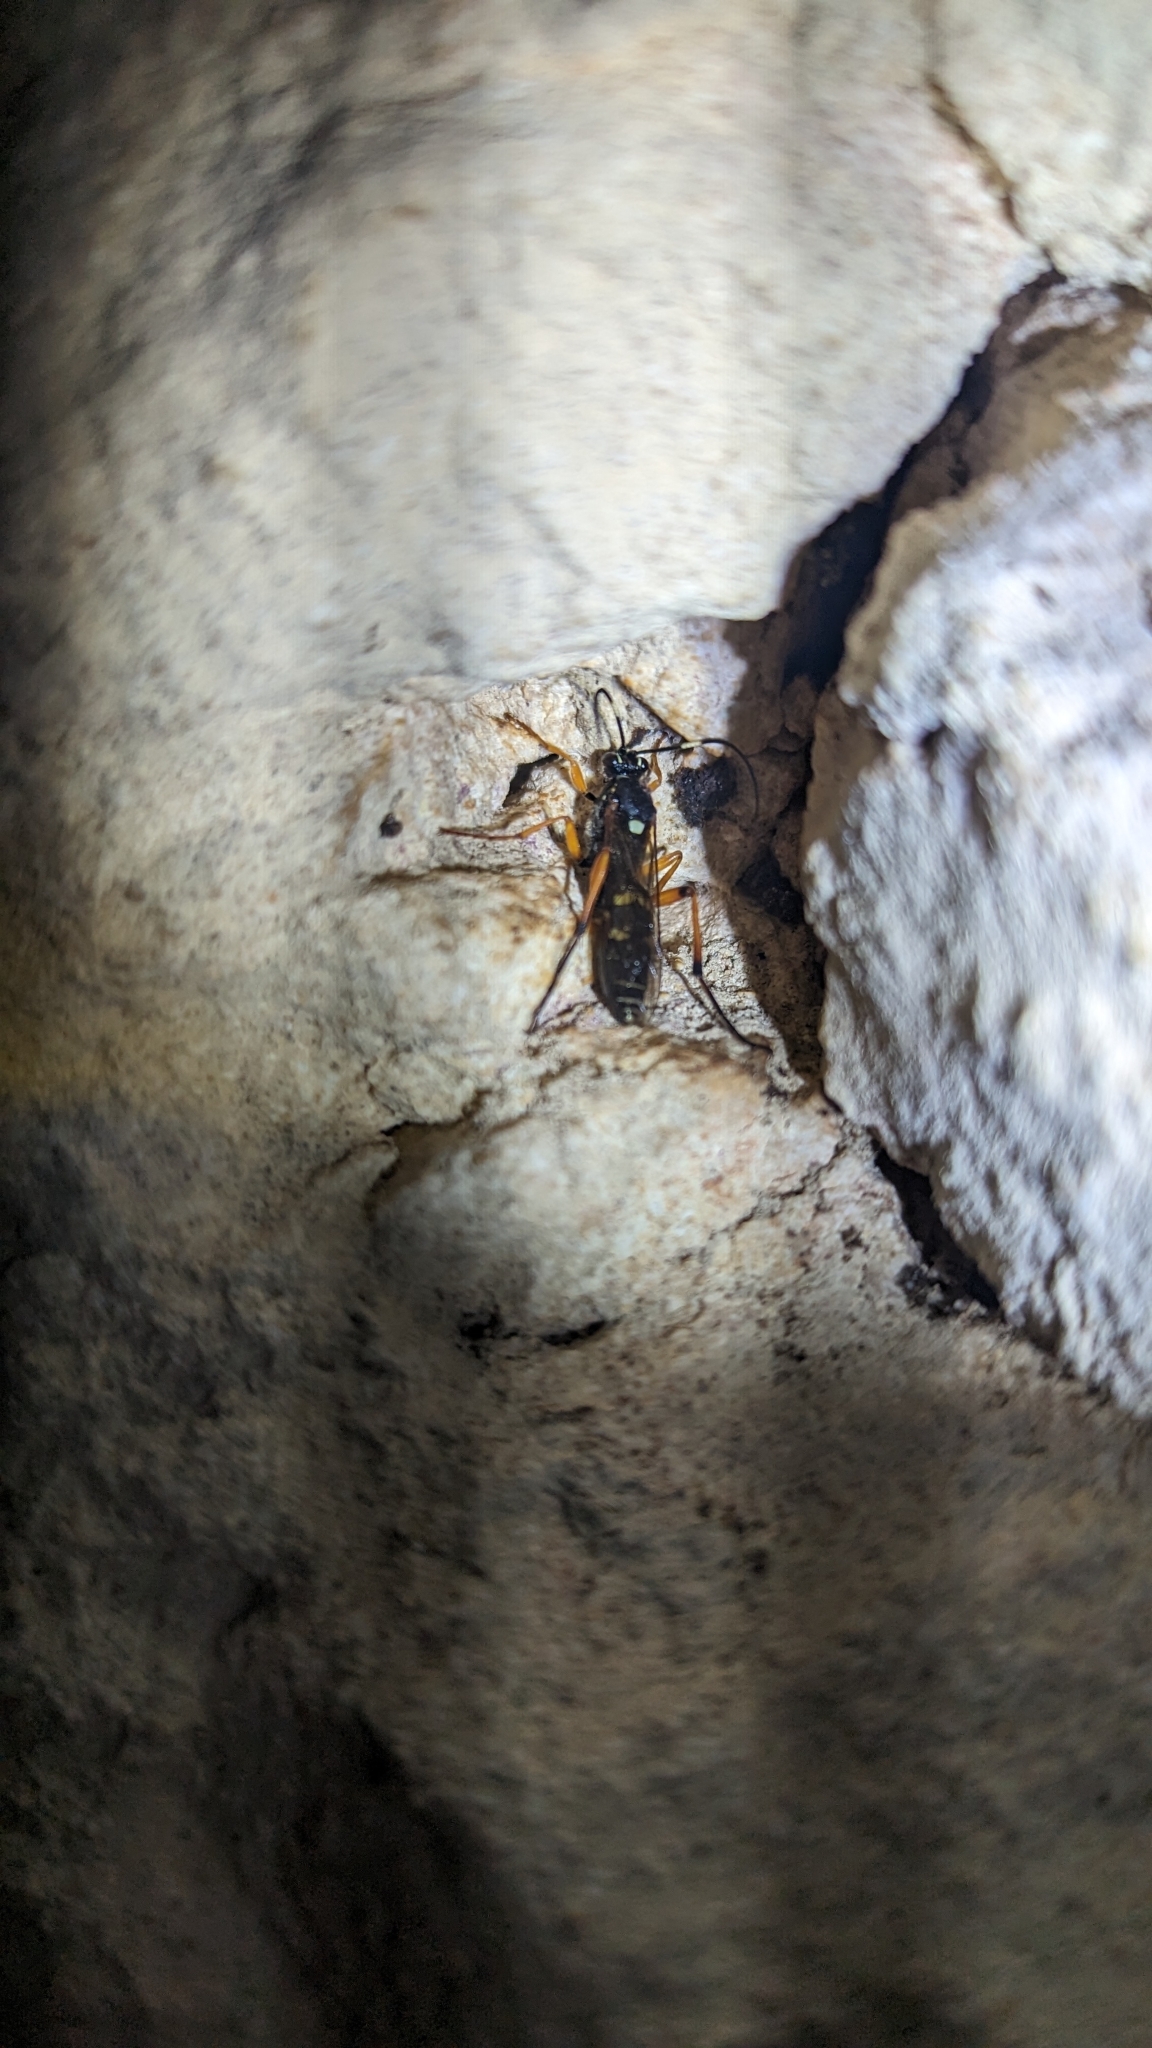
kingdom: Animalia
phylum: Arthropoda
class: Insecta
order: Hymenoptera
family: Ichneumonidae
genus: Diphyus
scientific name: Diphyus quadripunctorius
